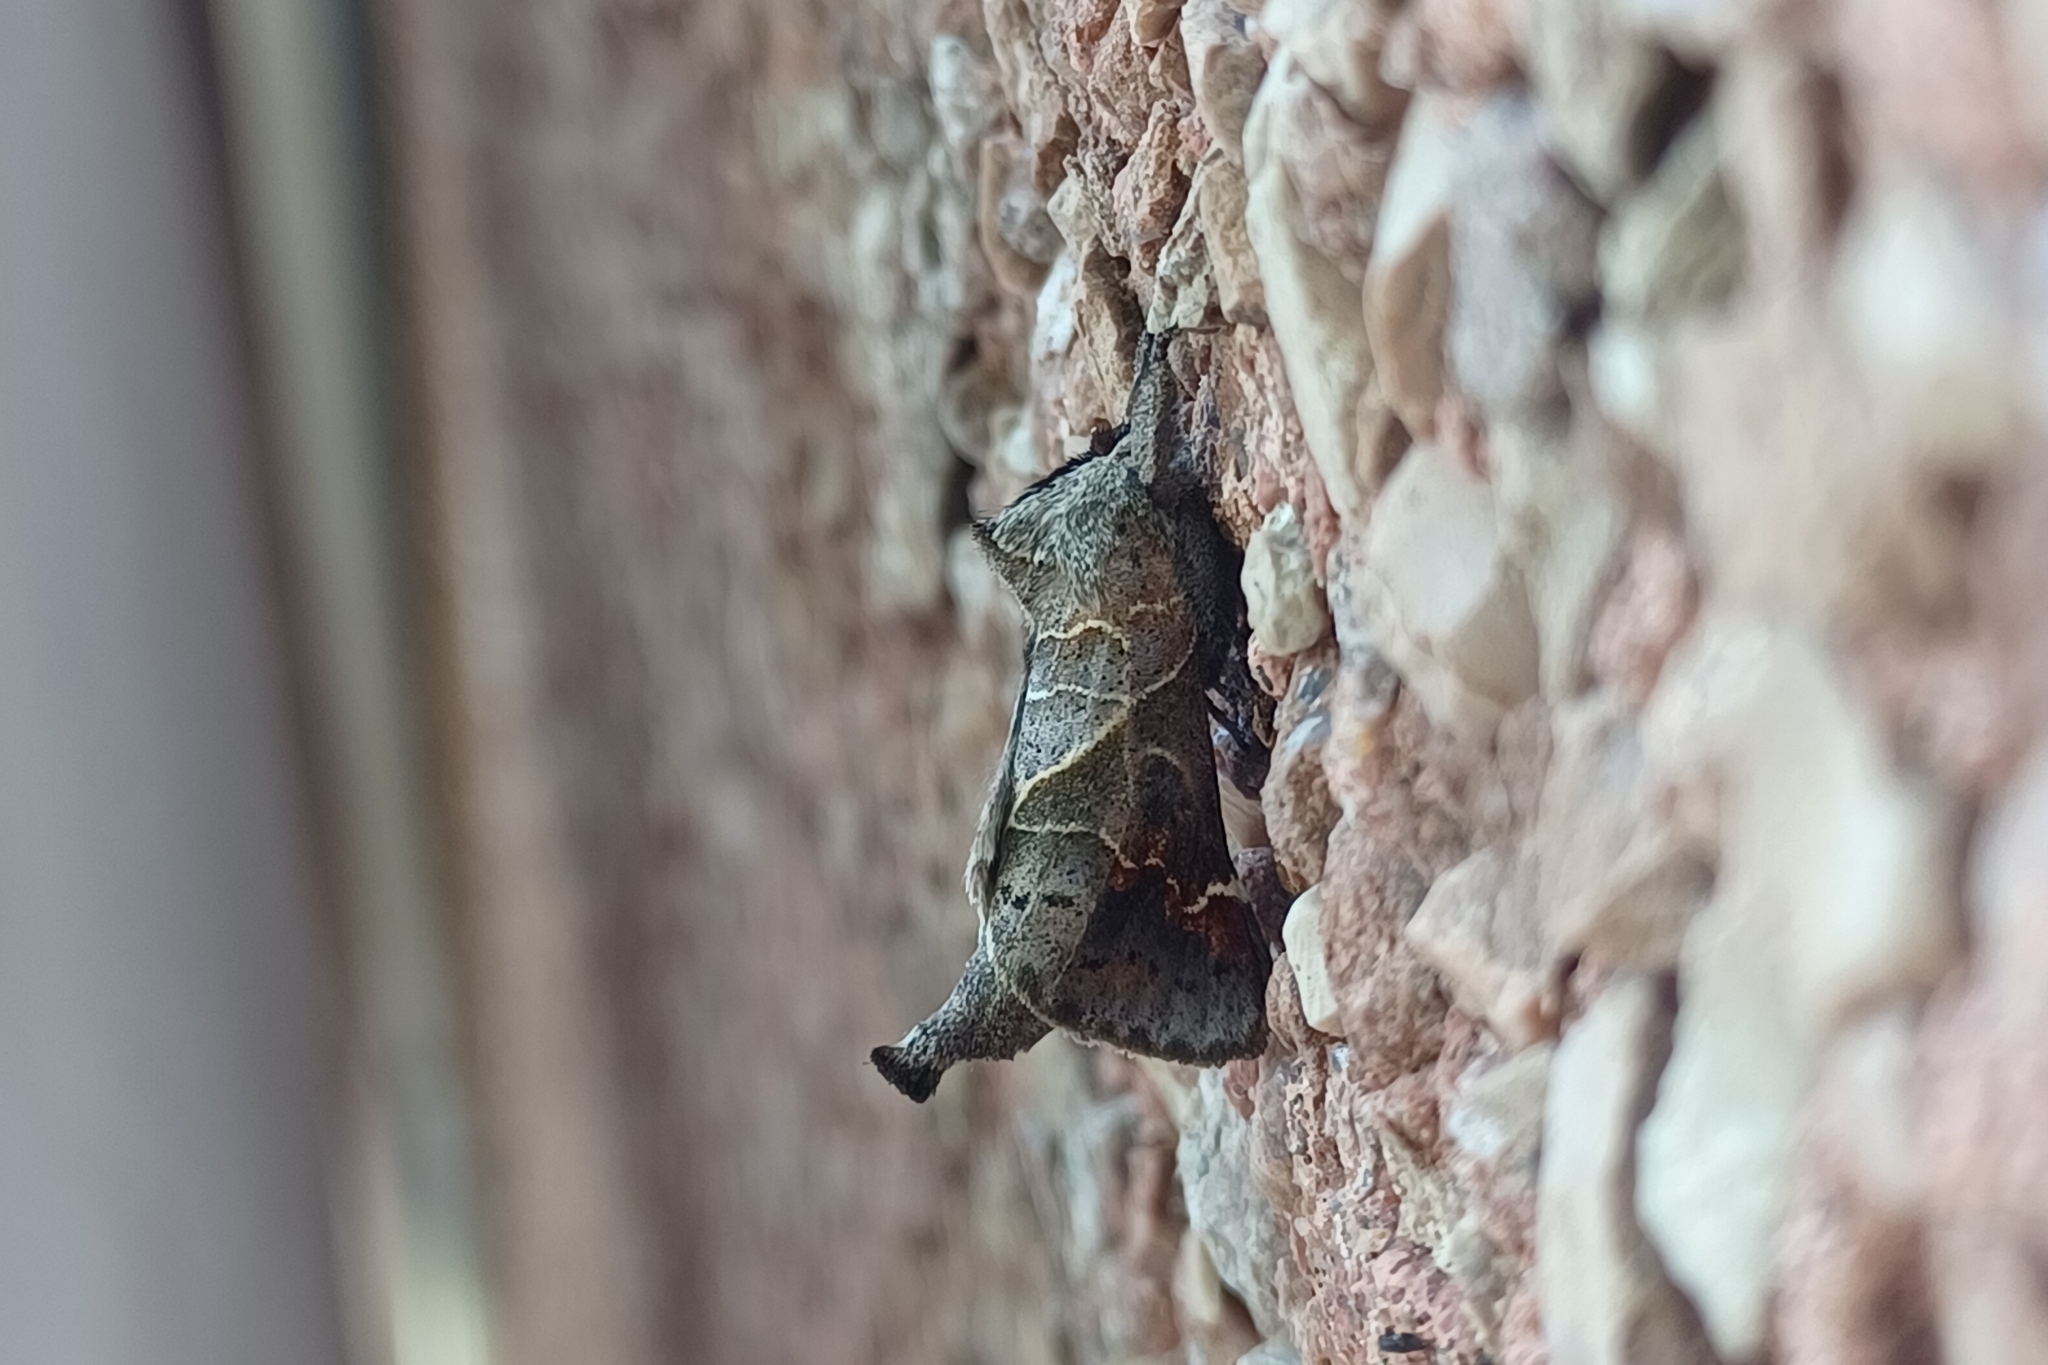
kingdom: Animalia
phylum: Arthropoda
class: Insecta
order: Lepidoptera
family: Notodontidae
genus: Clostera
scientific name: Clostera apicalis
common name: Apical prominent
